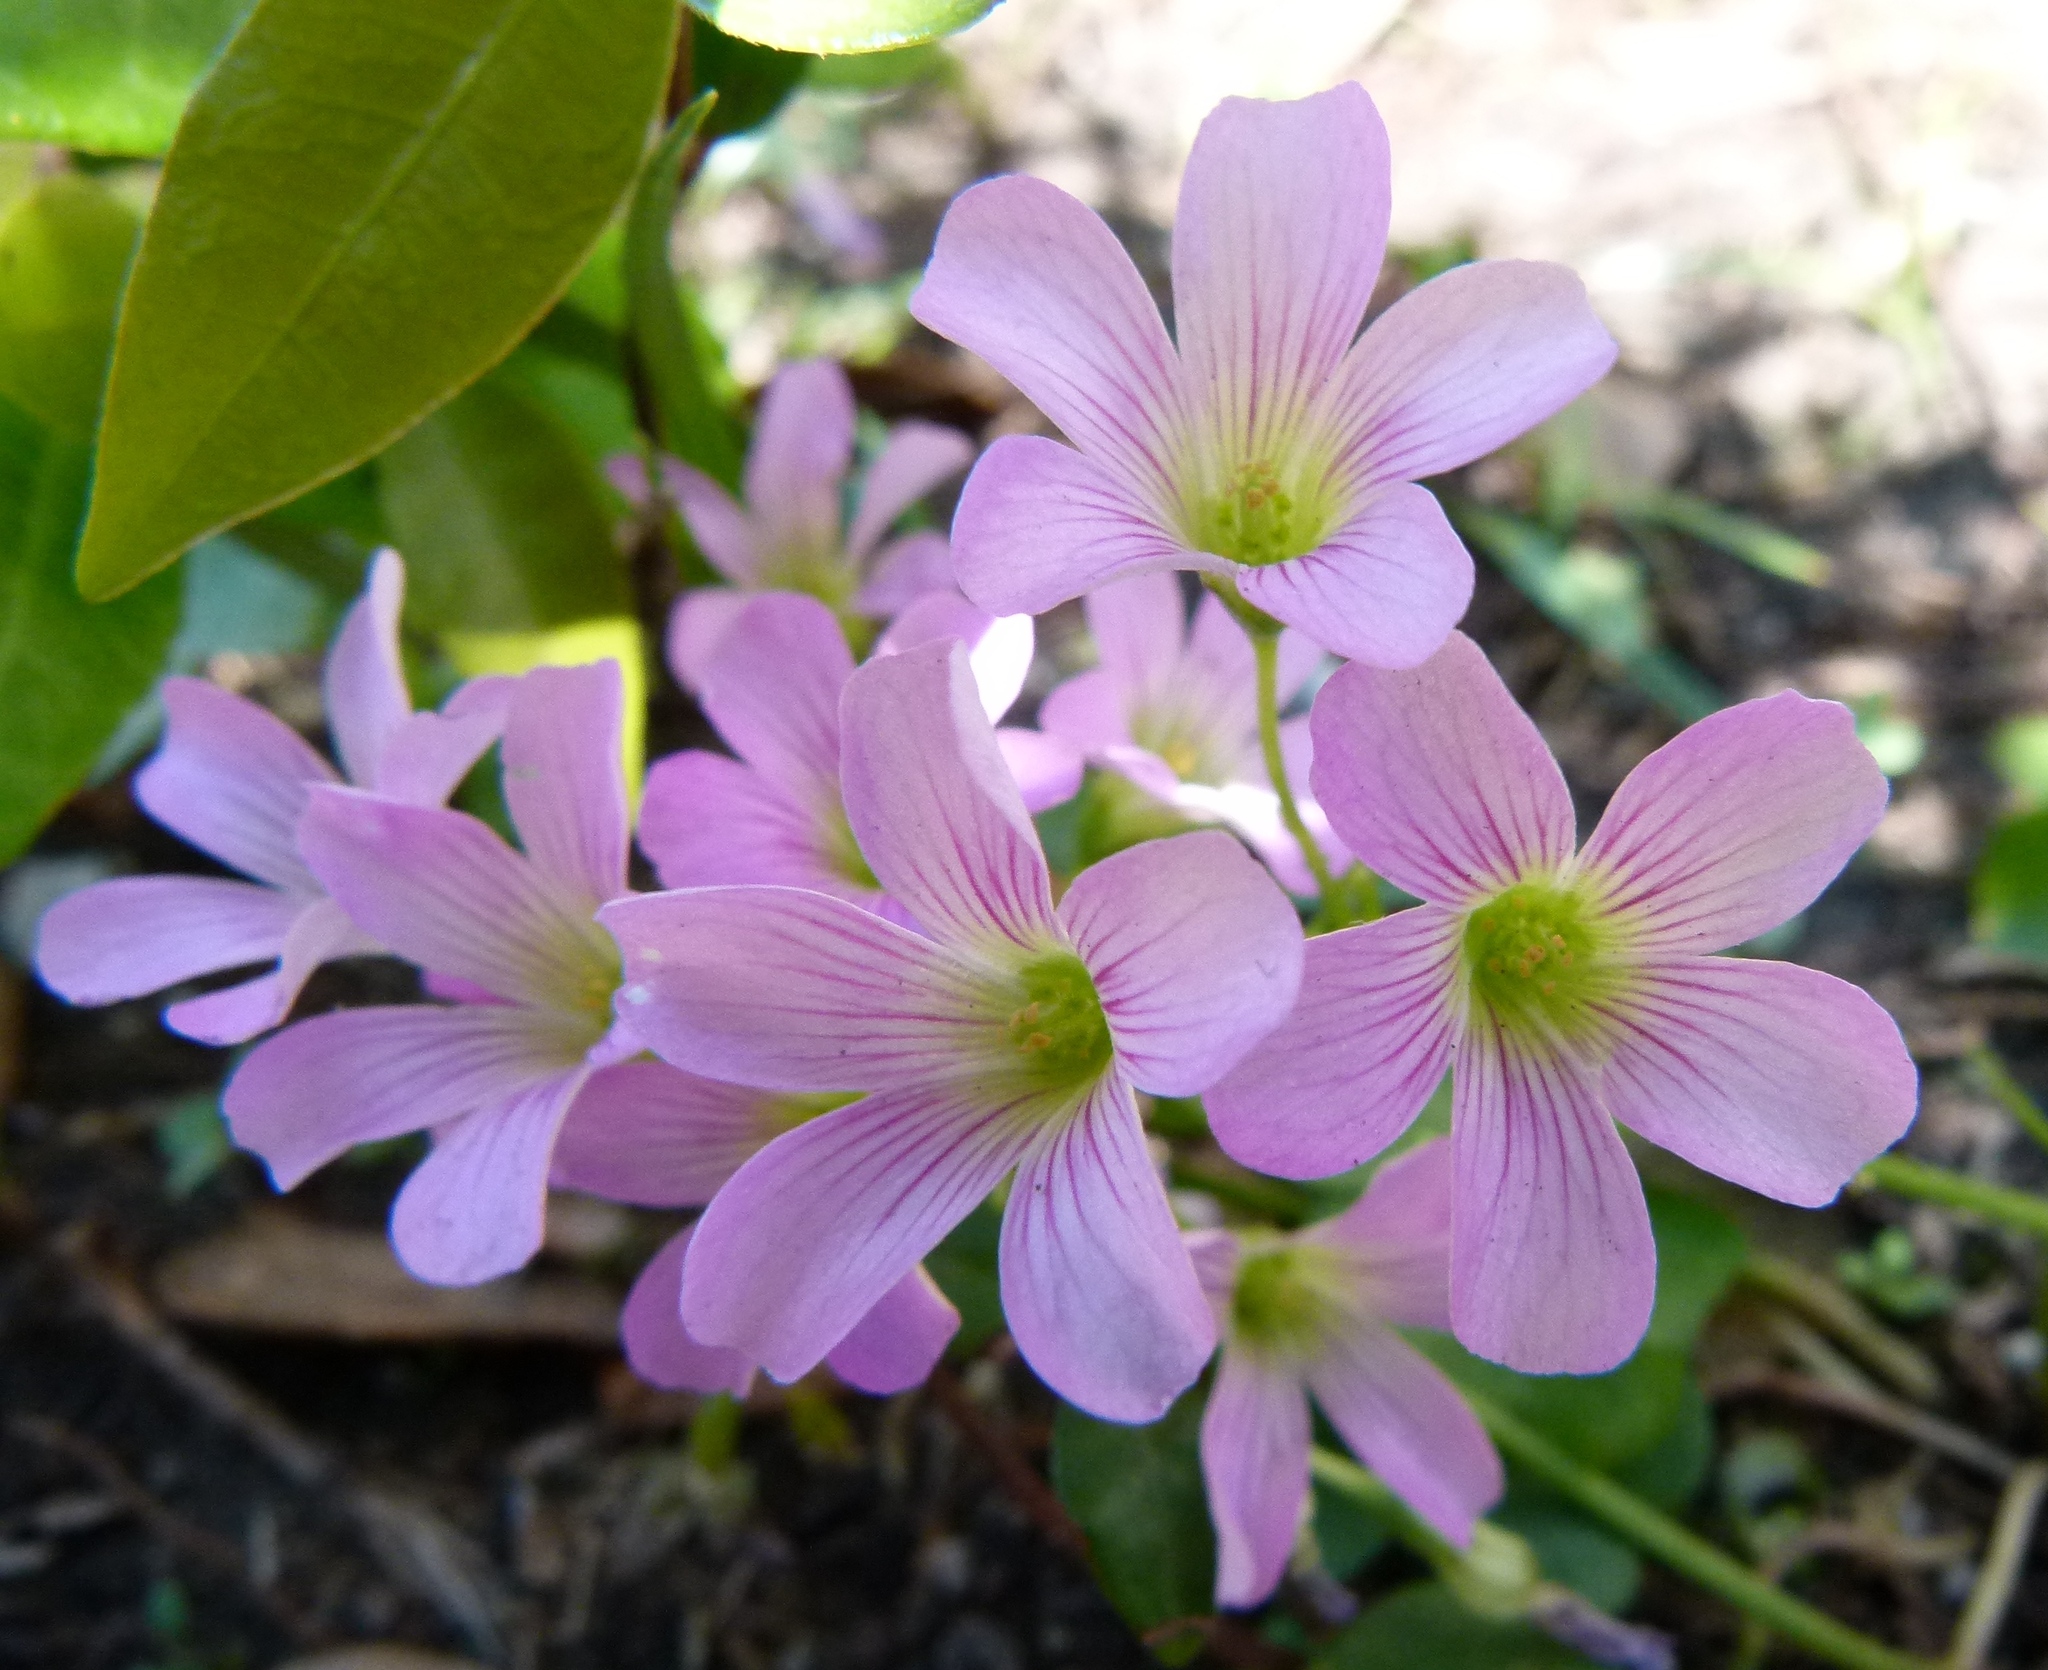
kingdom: Plantae
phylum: Tracheophyta
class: Magnoliopsida
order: Oxalidales
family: Oxalidaceae
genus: Oxalis
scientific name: Oxalis debilis
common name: Large-flowered pink-sorrel
